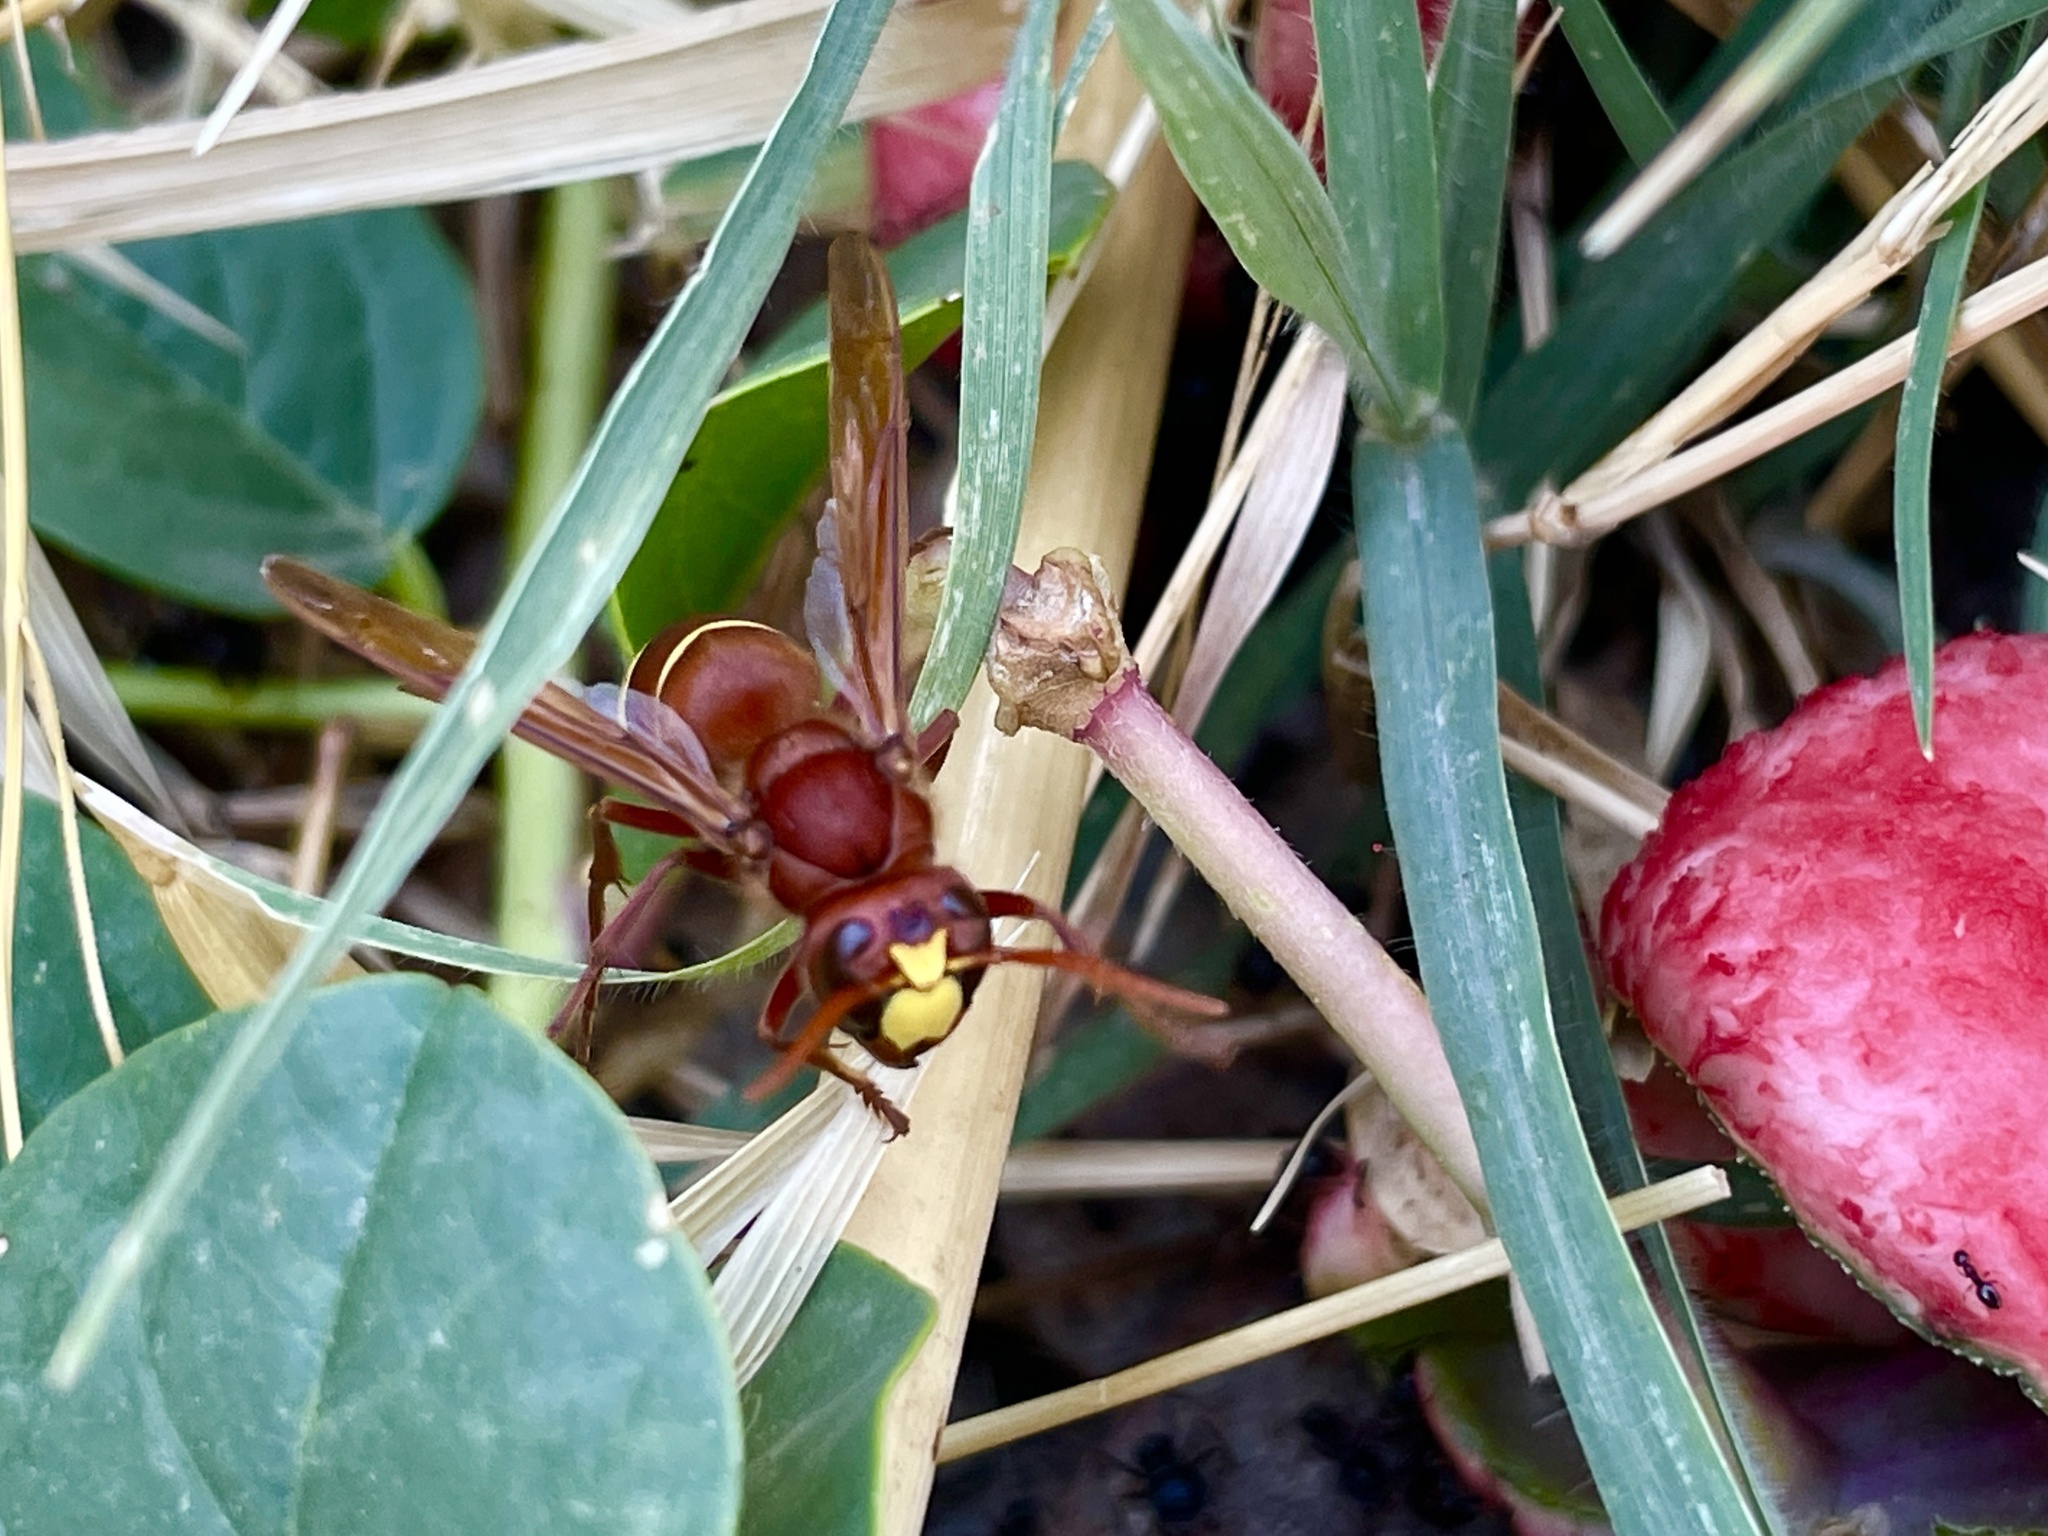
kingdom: Animalia
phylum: Arthropoda
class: Insecta
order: Hymenoptera
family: Vespidae
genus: Vespa
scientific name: Vespa orientalis
